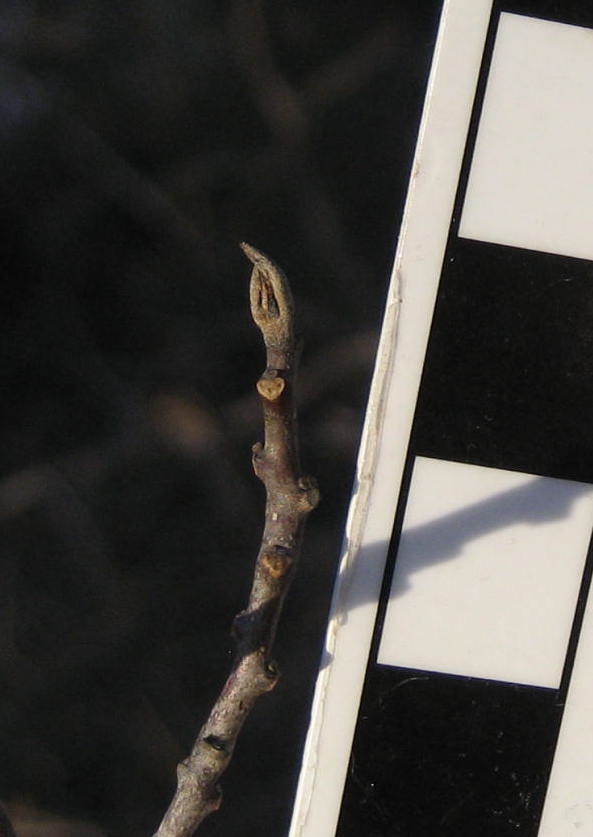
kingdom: Plantae
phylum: Tracheophyta
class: Magnoliopsida
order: Rosales
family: Rhamnaceae
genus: Frangula
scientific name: Frangula alnus
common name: Alder buckthorn
